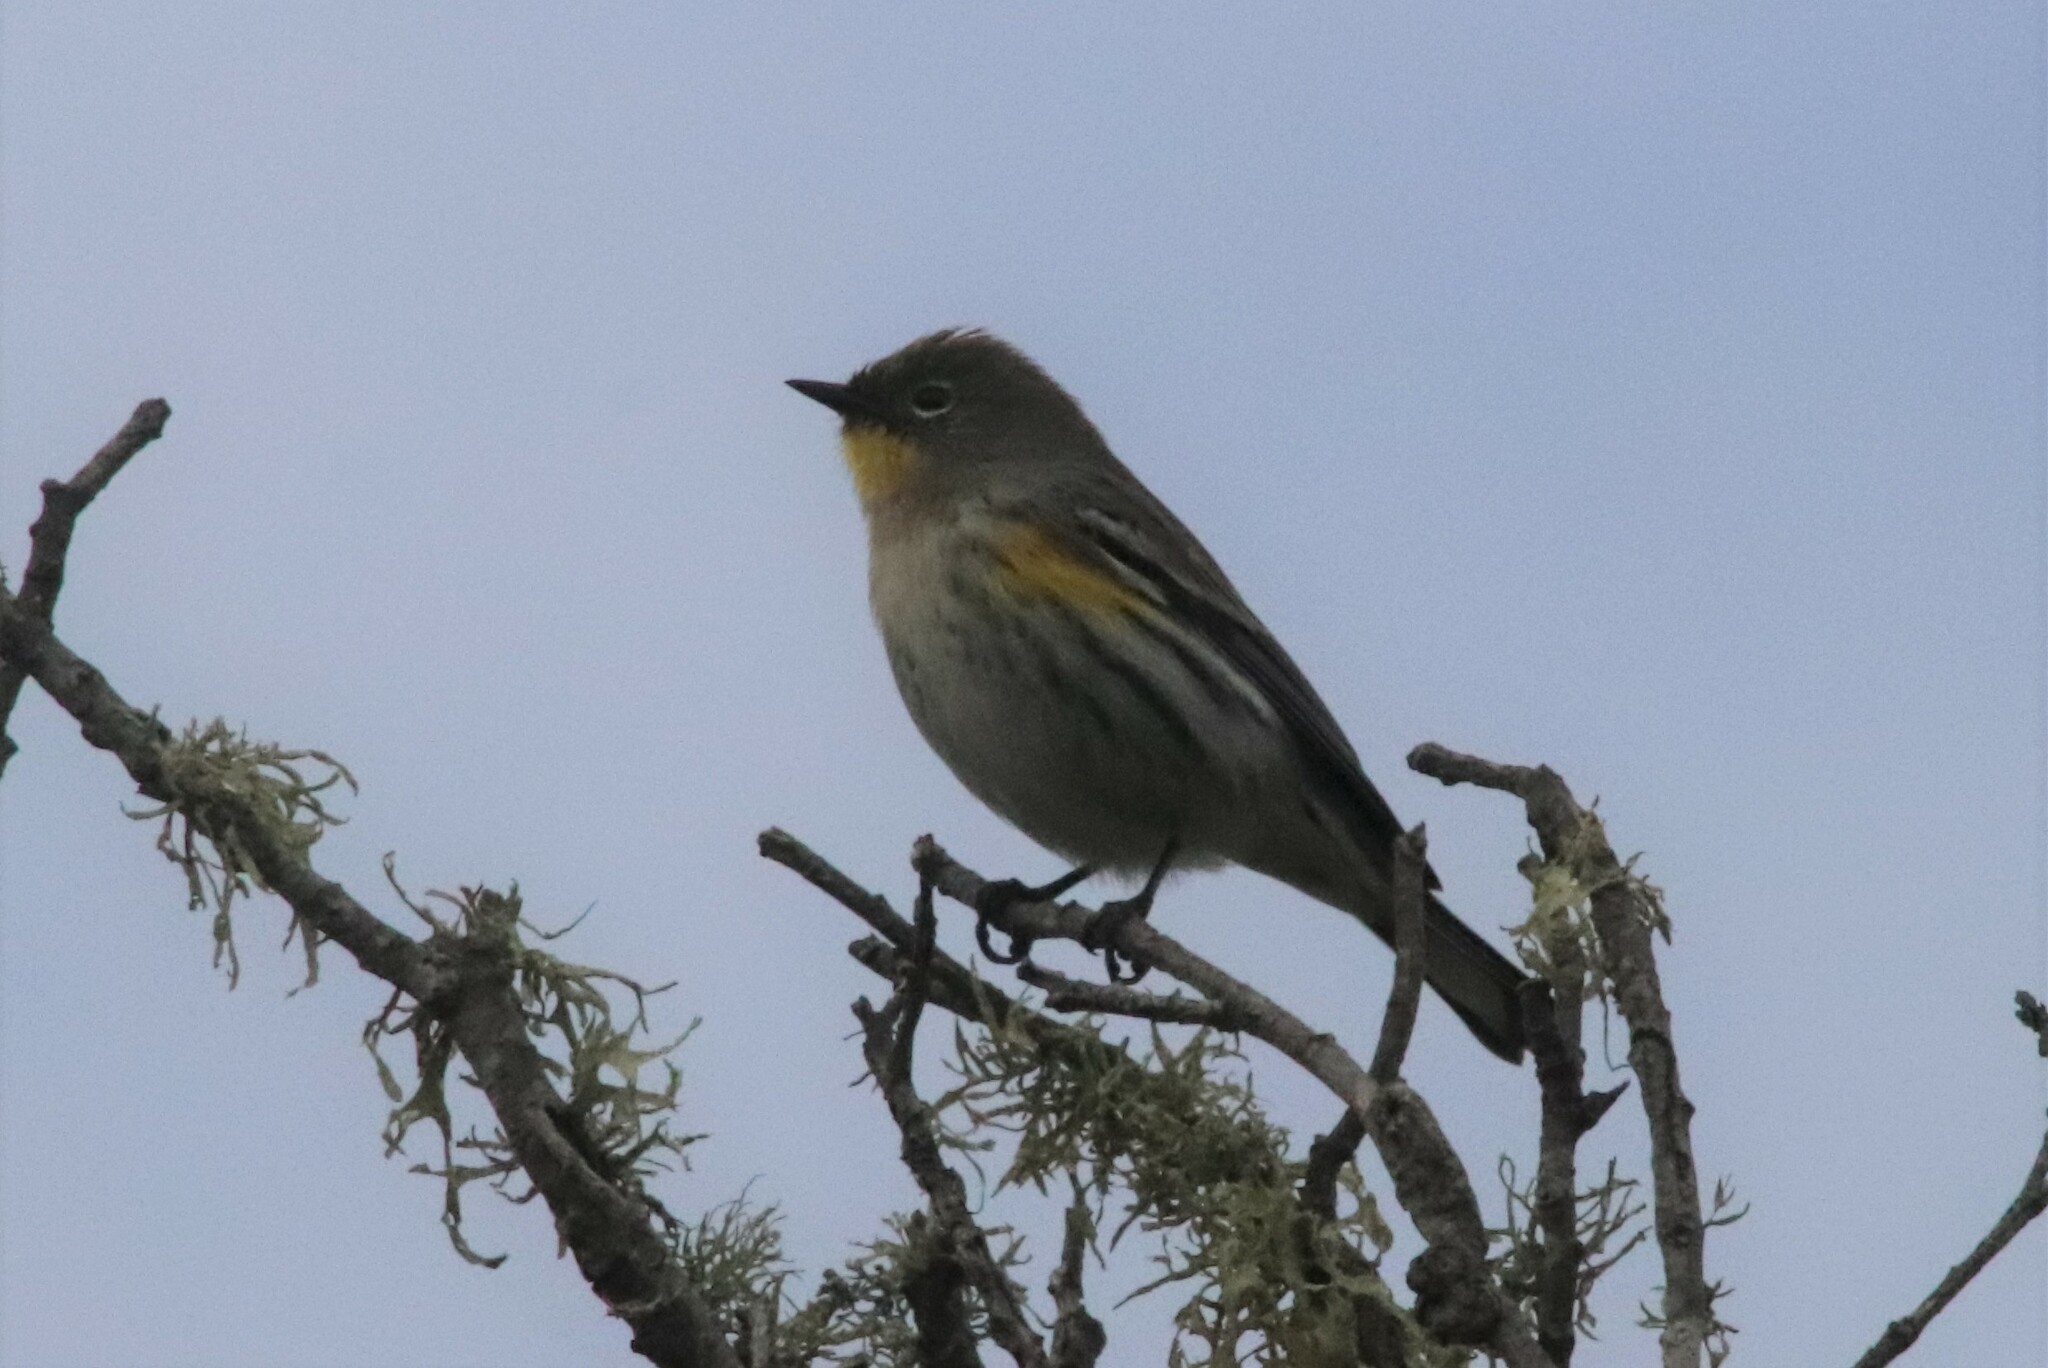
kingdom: Animalia
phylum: Chordata
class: Aves
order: Passeriformes
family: Parulidae
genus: Setophaga
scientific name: Setophaga coronata
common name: Myrtle warbler
